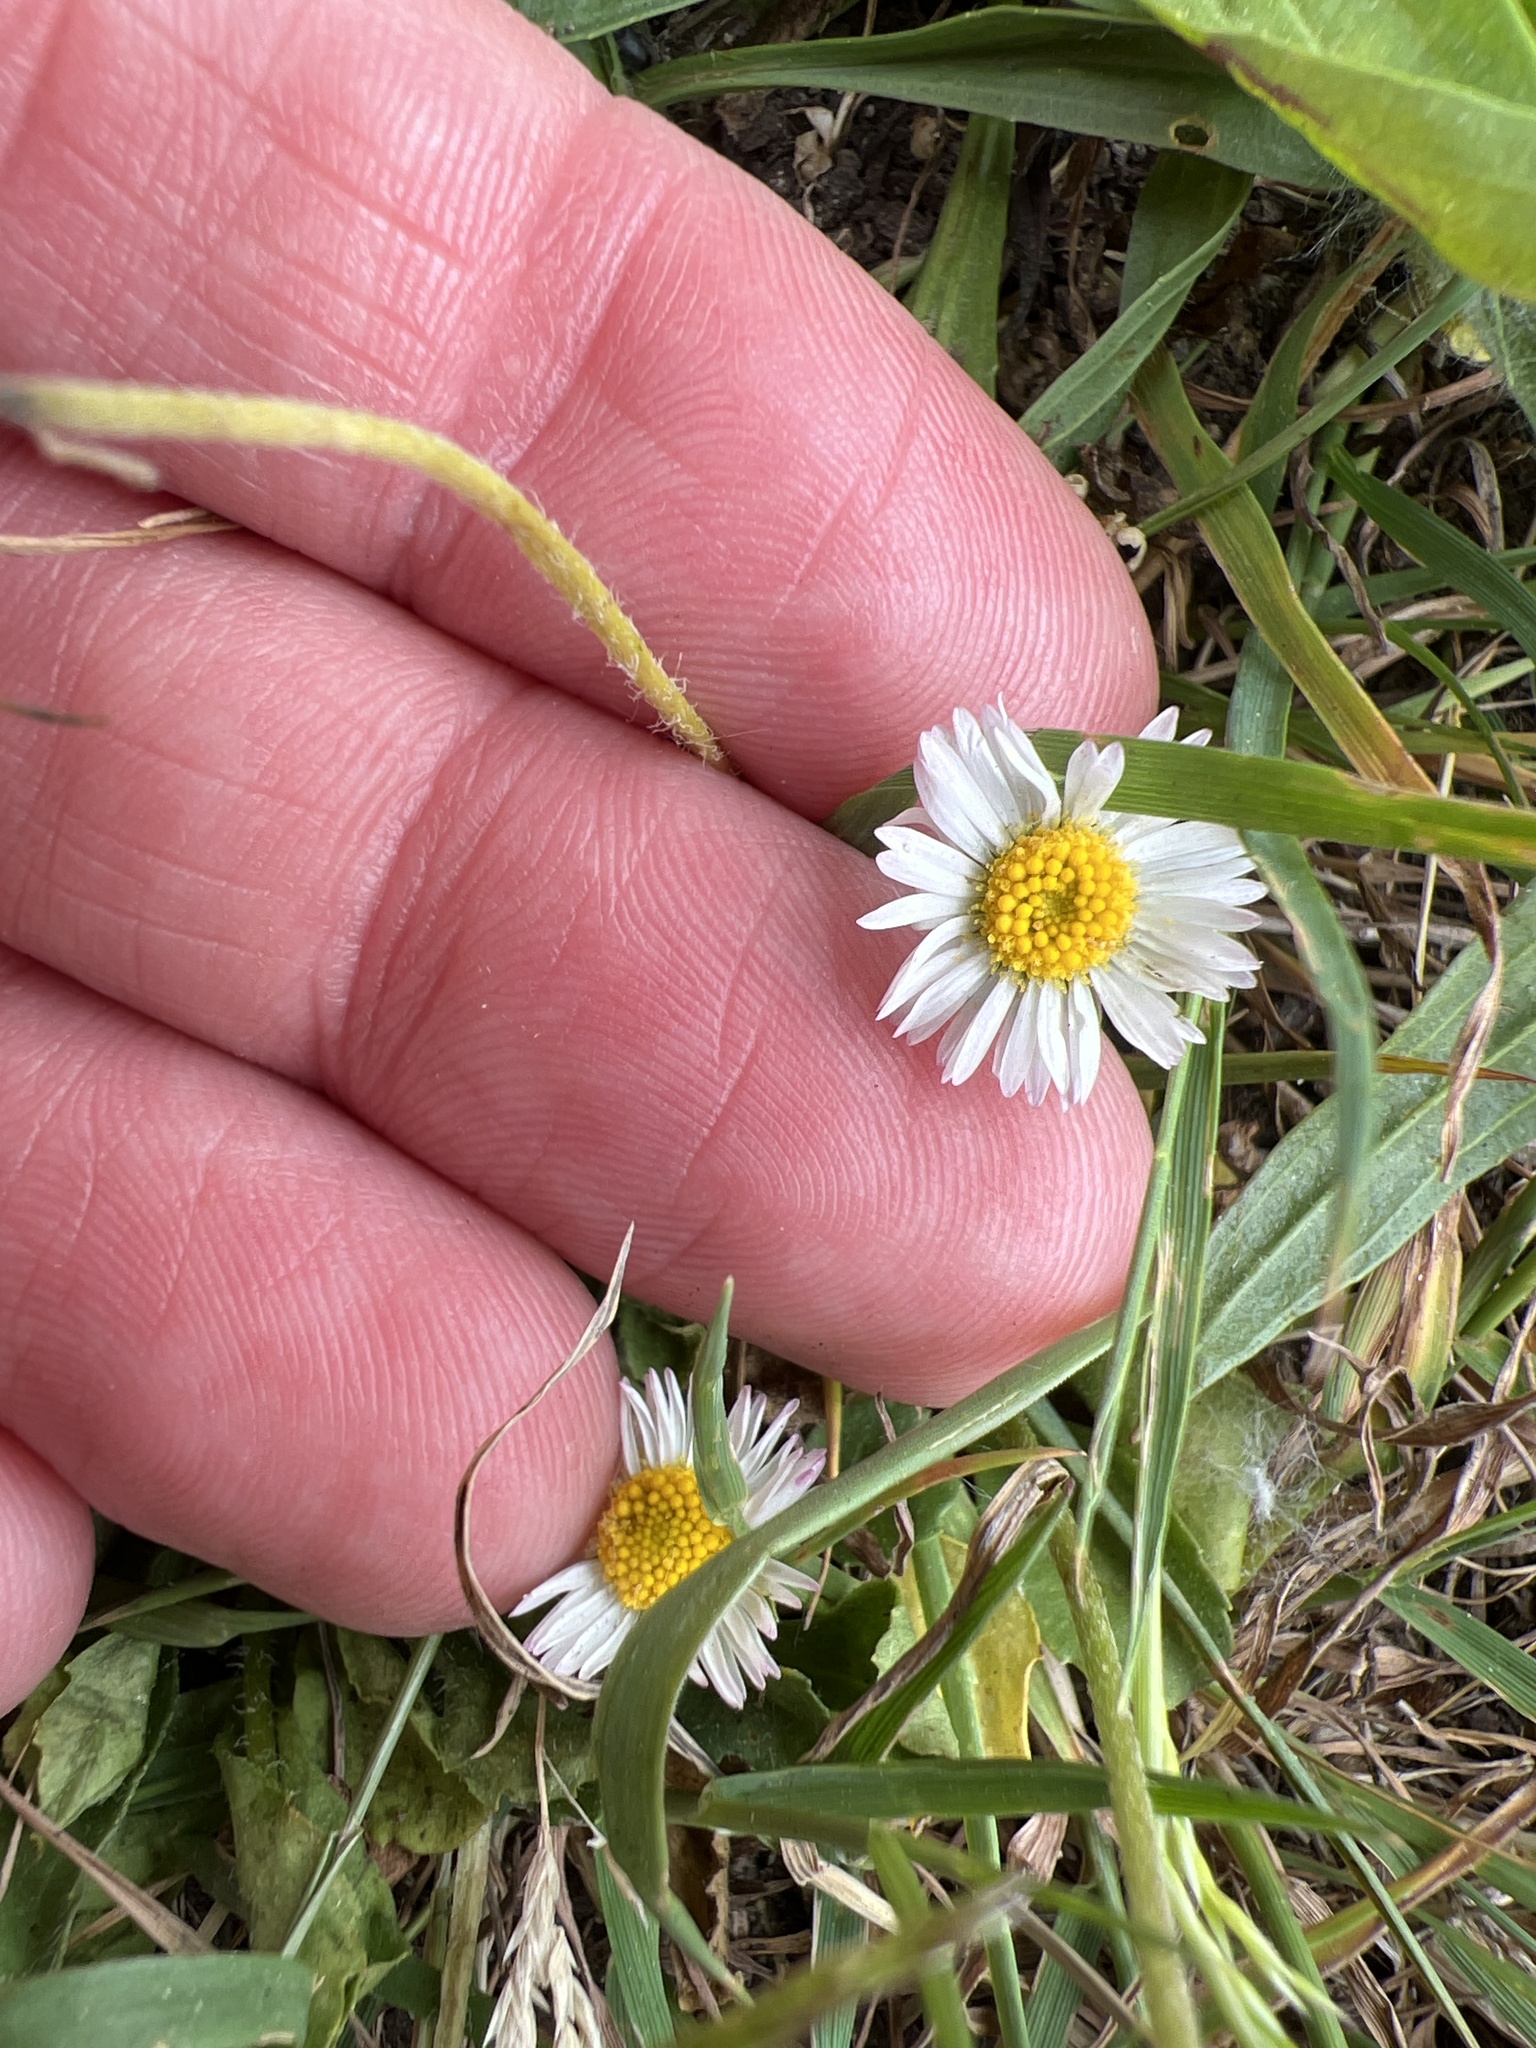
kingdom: Plantae
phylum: Tracheophyta
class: Magnoliopsida
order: Asterales
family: Asteraceae
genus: Bellis
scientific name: Bellis perennis
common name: Lawndaisy
